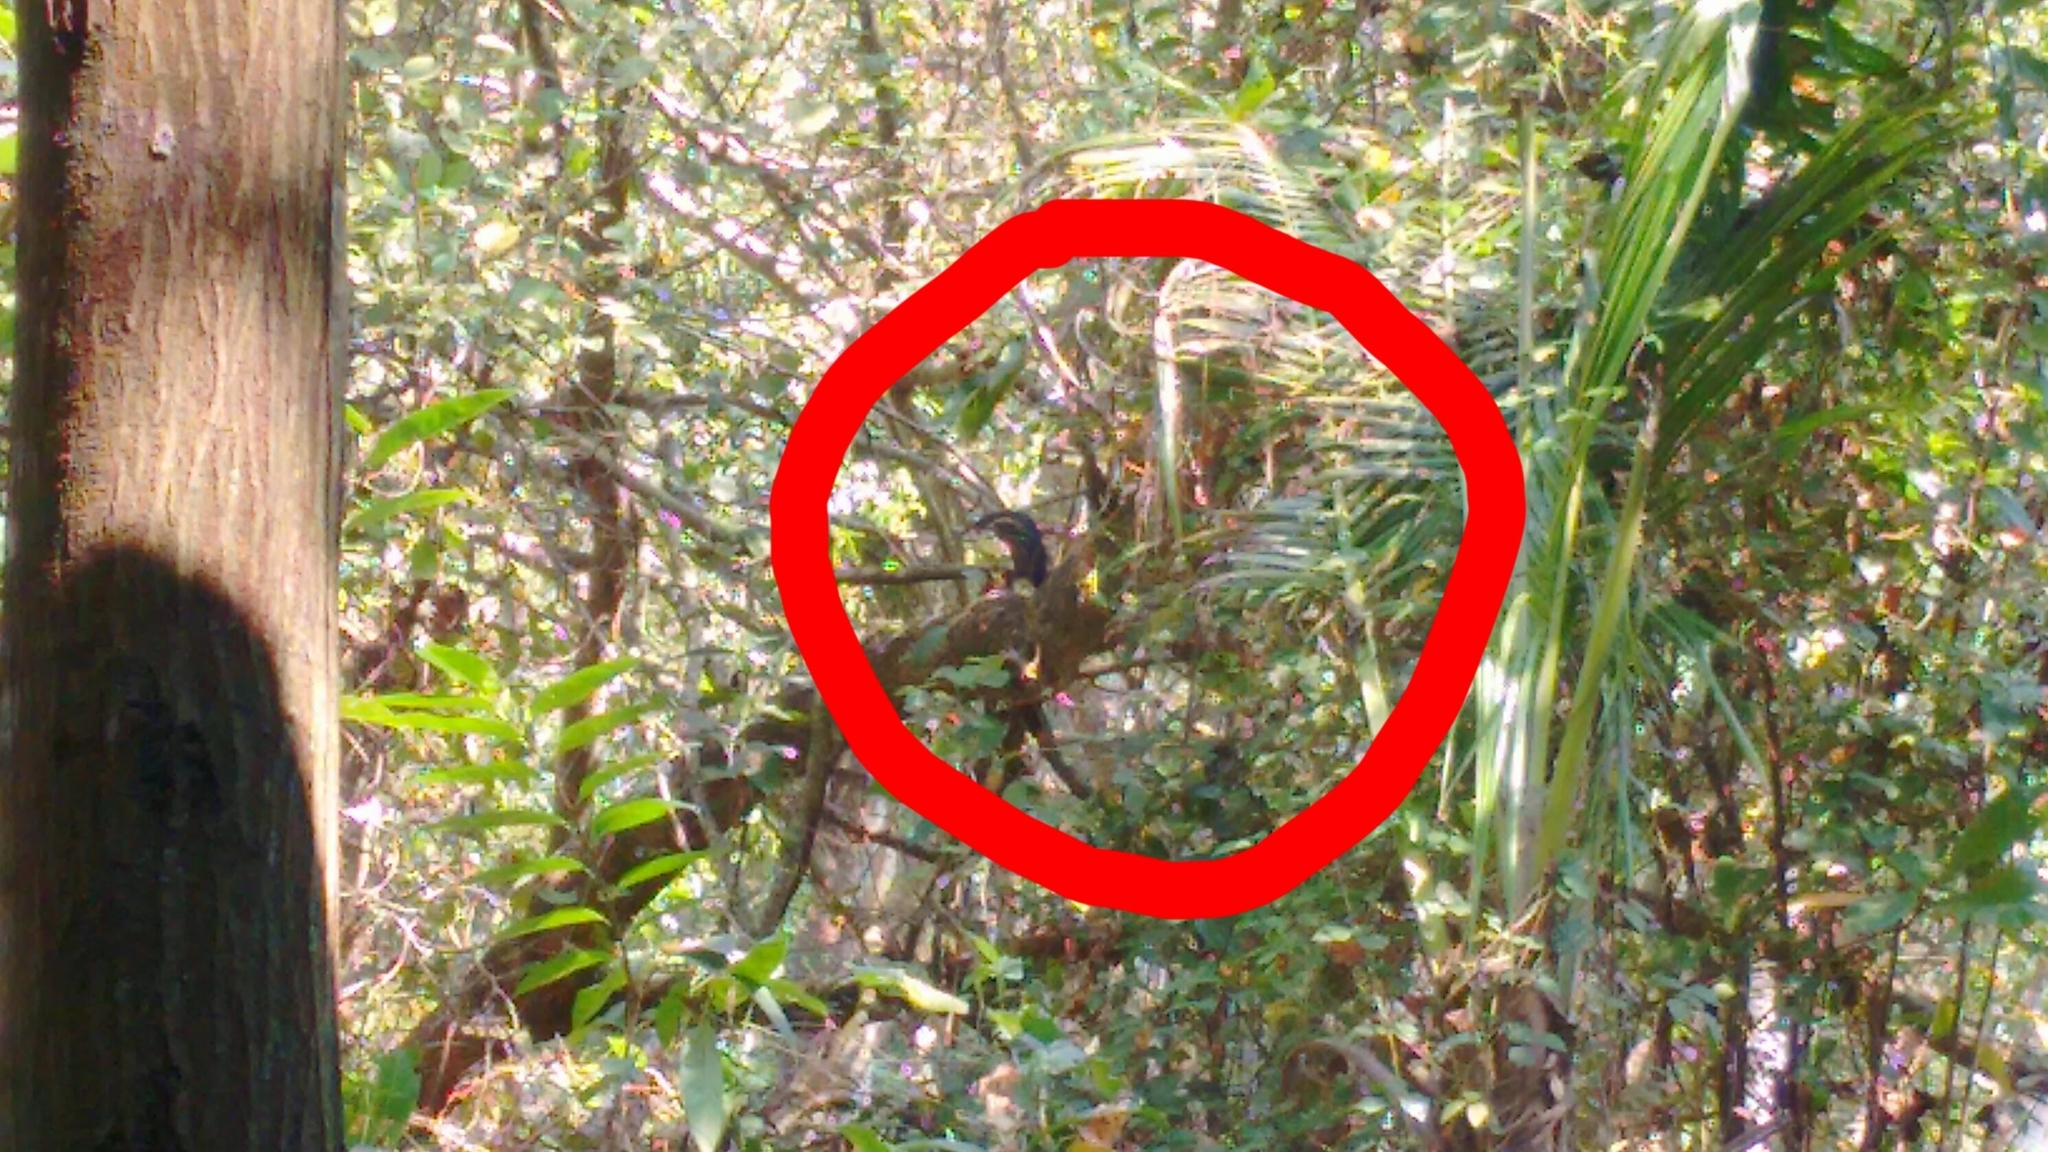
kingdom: Animalia
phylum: Chordata
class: Aves
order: Pelecaniformes
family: Ardeidae
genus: Dupetor
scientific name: Dupetor flavicollis
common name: Black bittern
